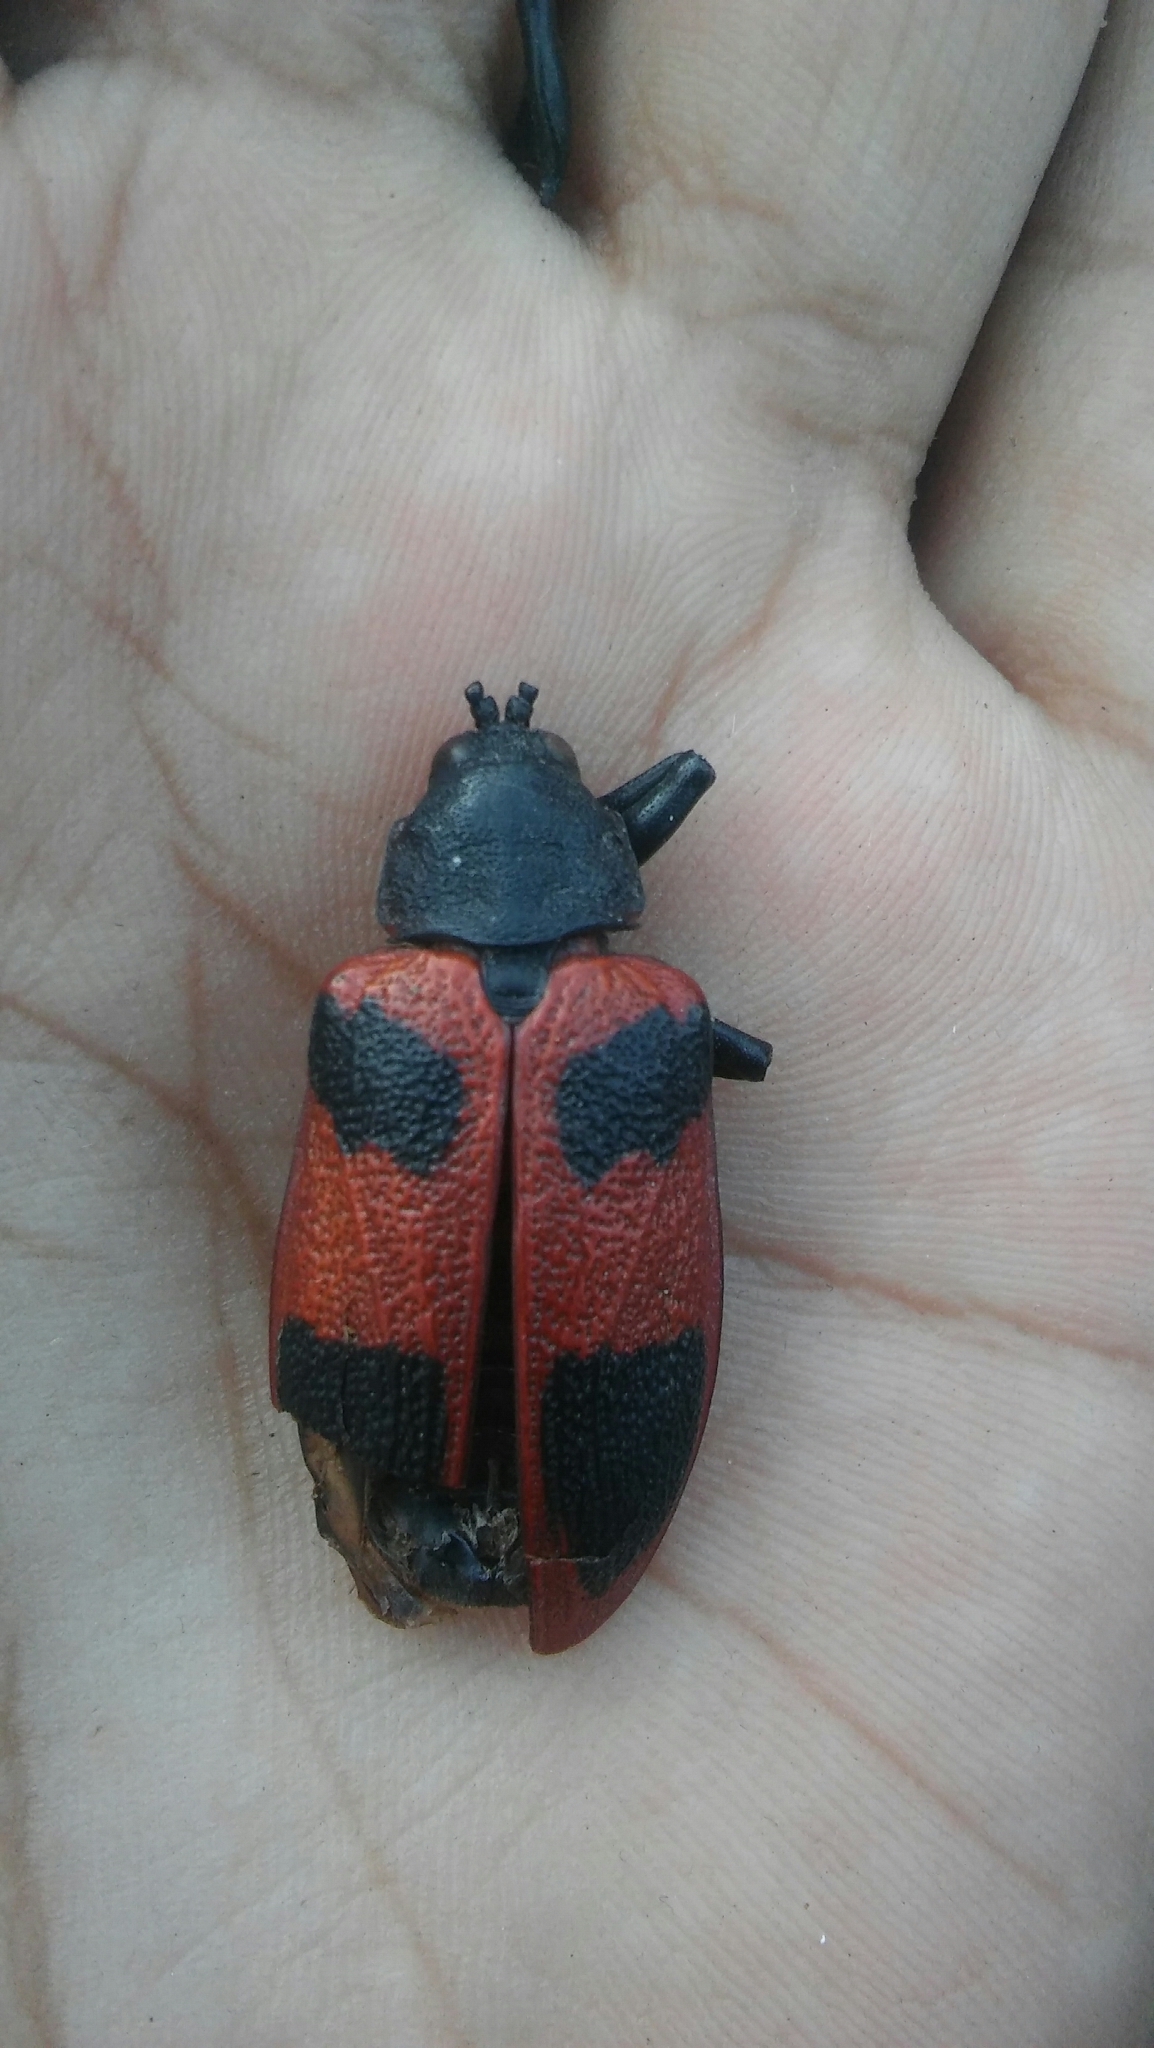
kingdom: Animalia
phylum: Arthropoda
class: Insecta
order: Coleoptera
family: Chrysomelidae
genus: Coraliomela
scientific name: Coraliomela quadrimaculata
